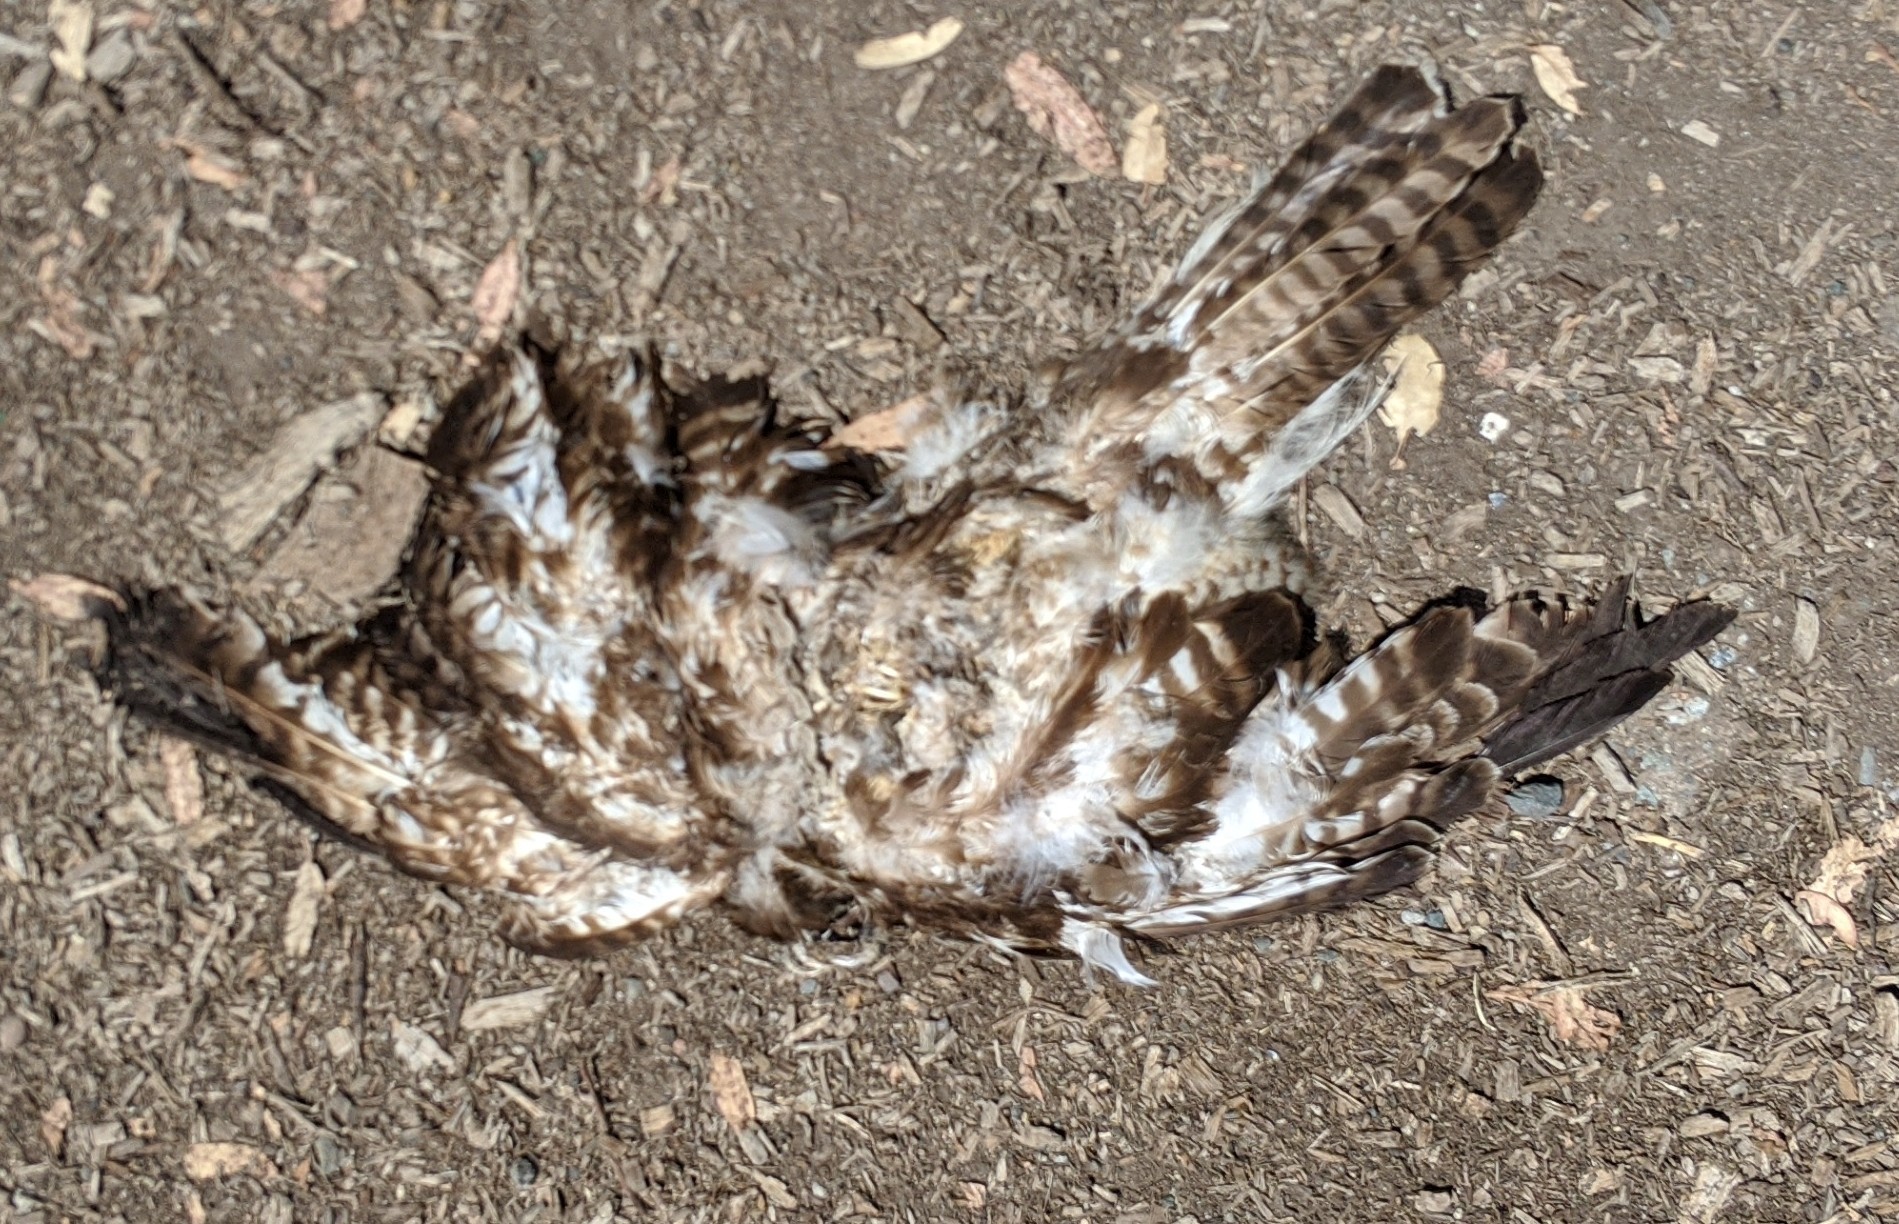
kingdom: Animalia
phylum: Chordata
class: Aves
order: Accipitriformes
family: Accipitridae
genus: Buteo
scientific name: Buteo jamaicensis
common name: Red-tailed hawk
